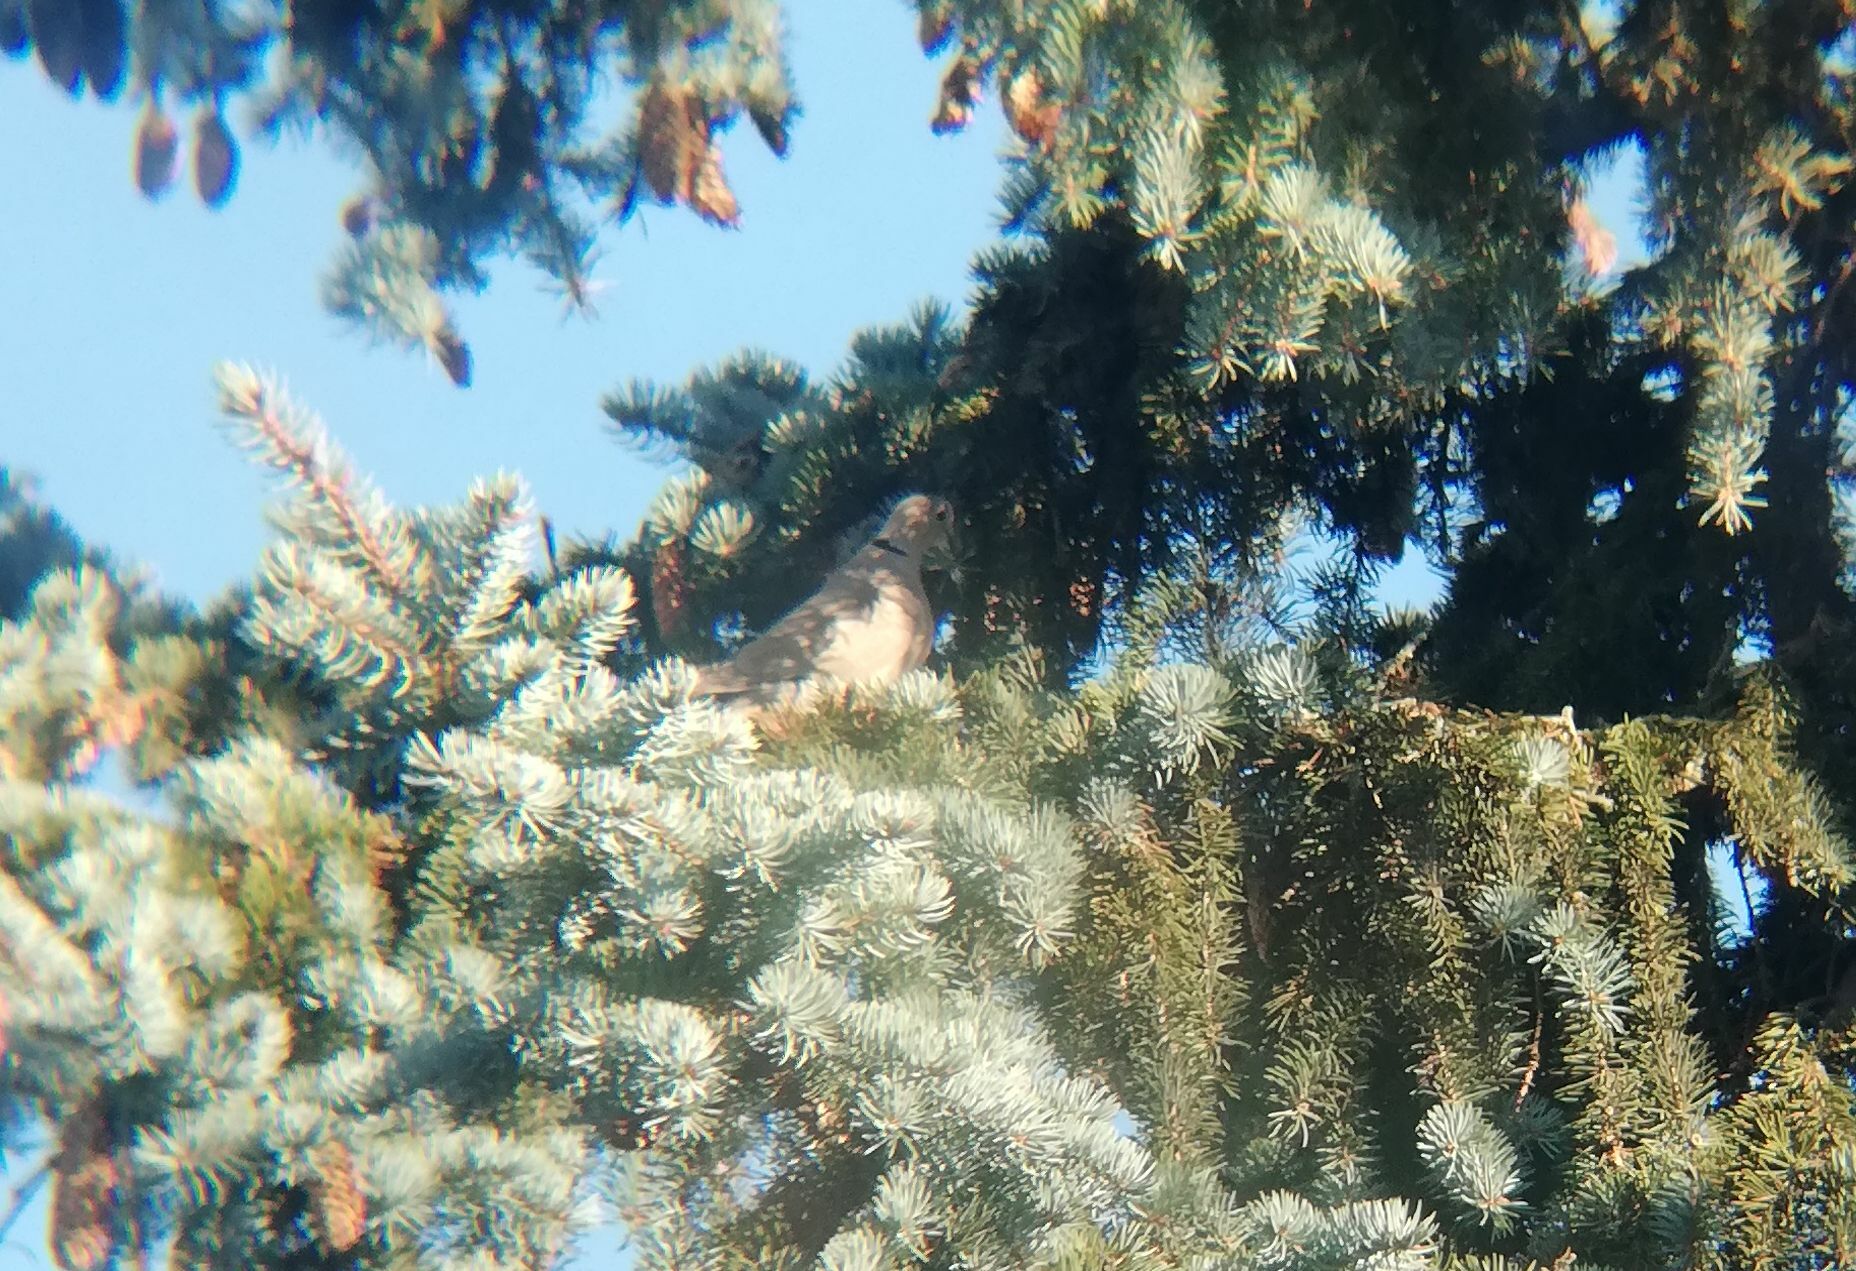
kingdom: Animalia
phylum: Chordata
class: Aves
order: Columbiformes
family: Columbidae
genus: Streptopelia
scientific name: Streptopelia decaocto
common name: Eurasian collared dove
